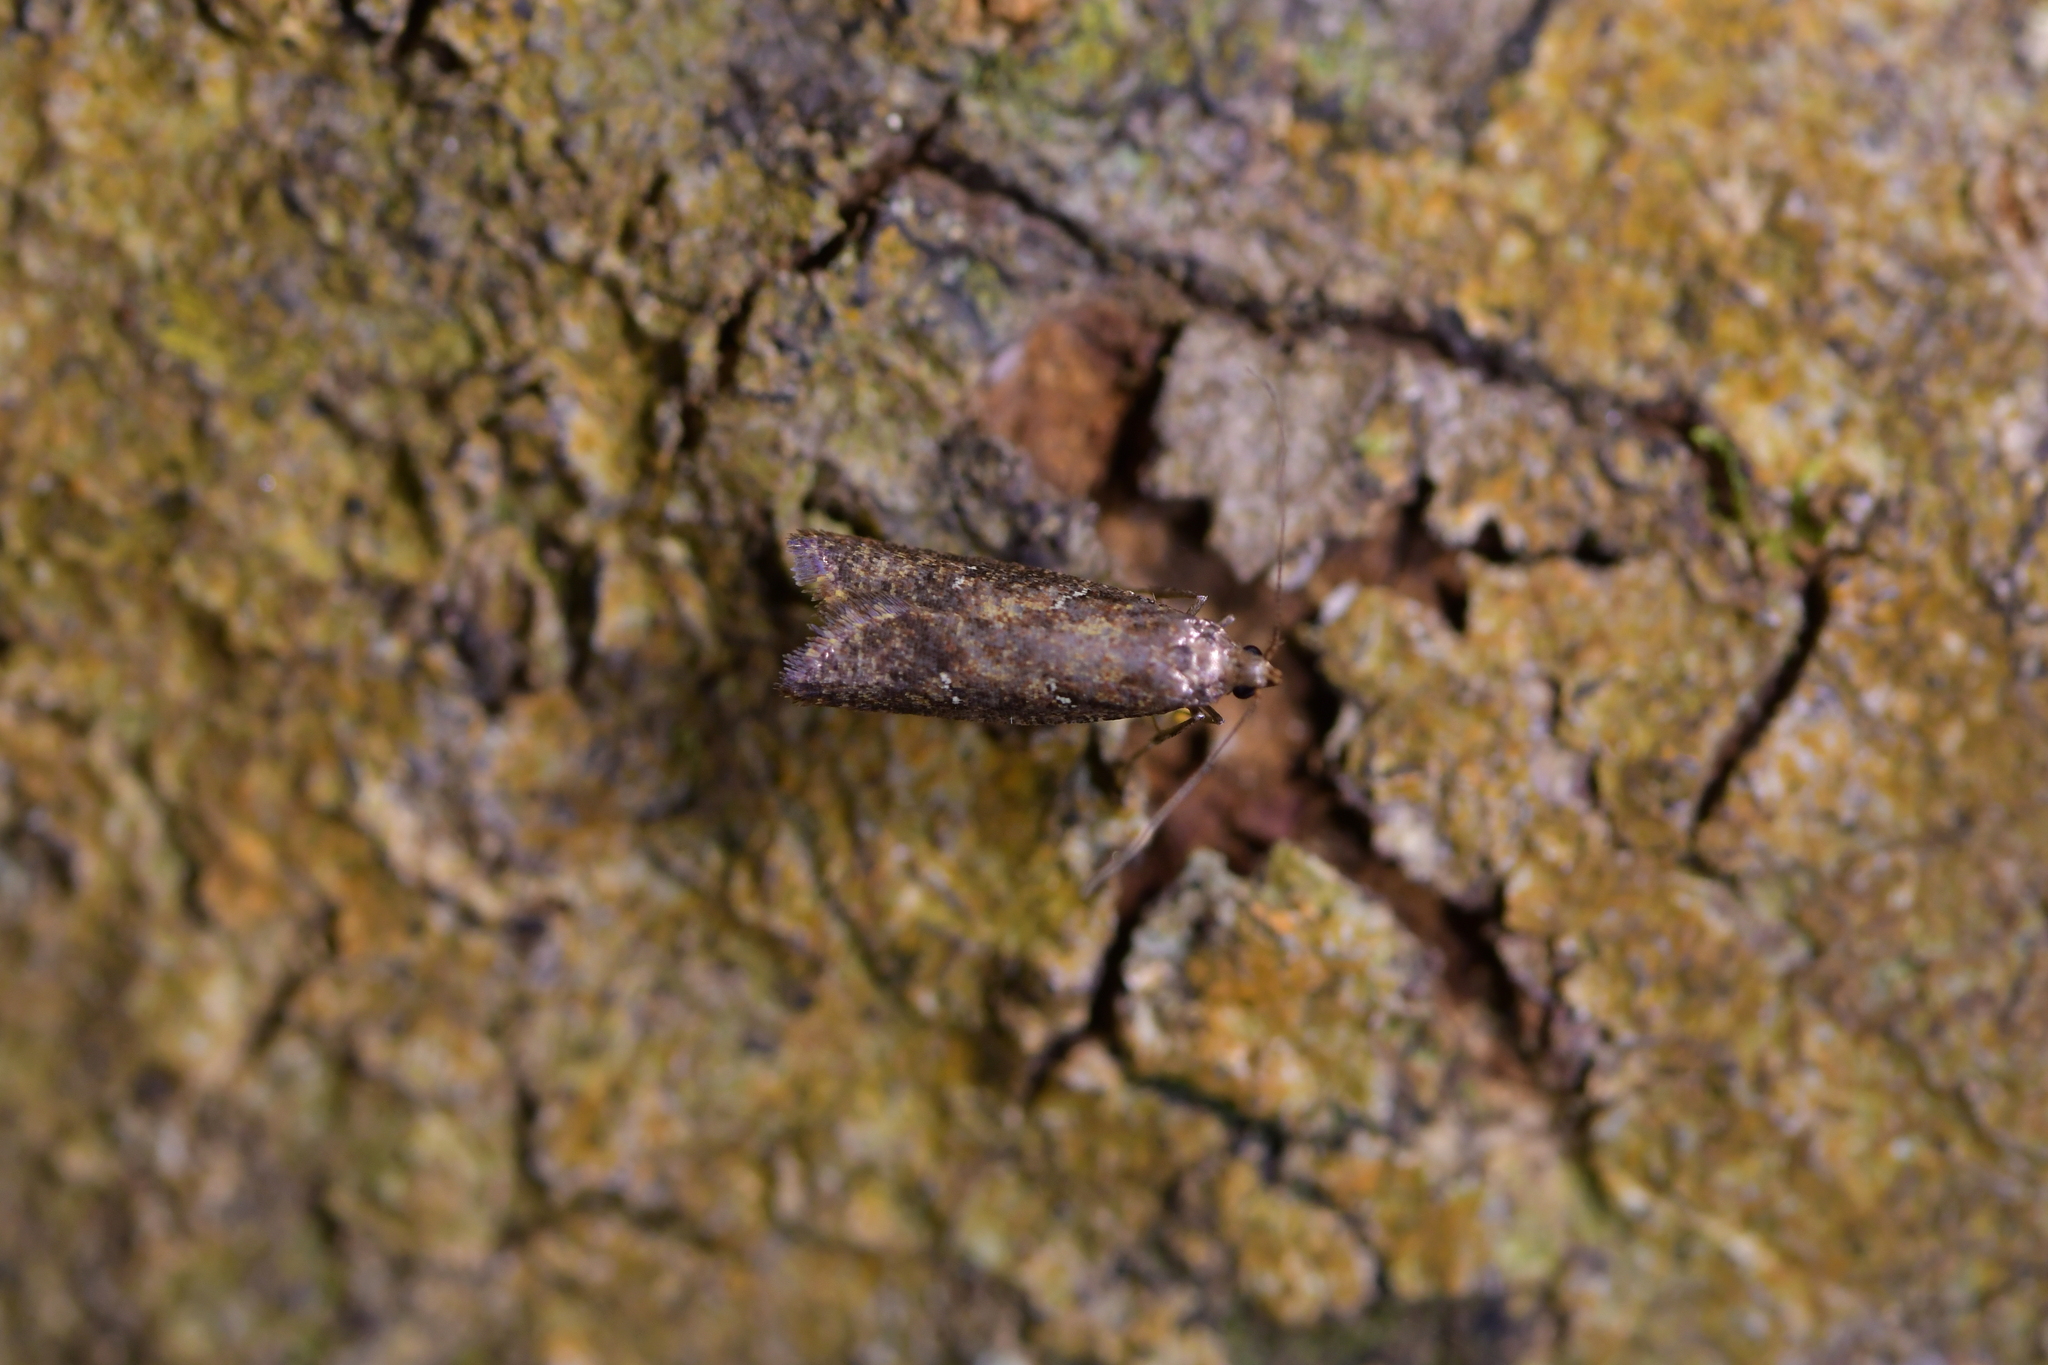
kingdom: Animalia
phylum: Arthropoda
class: Insecta
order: Lepidoptera
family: Plutellidae
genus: Cadmogenes
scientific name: Cadmogenes literata
